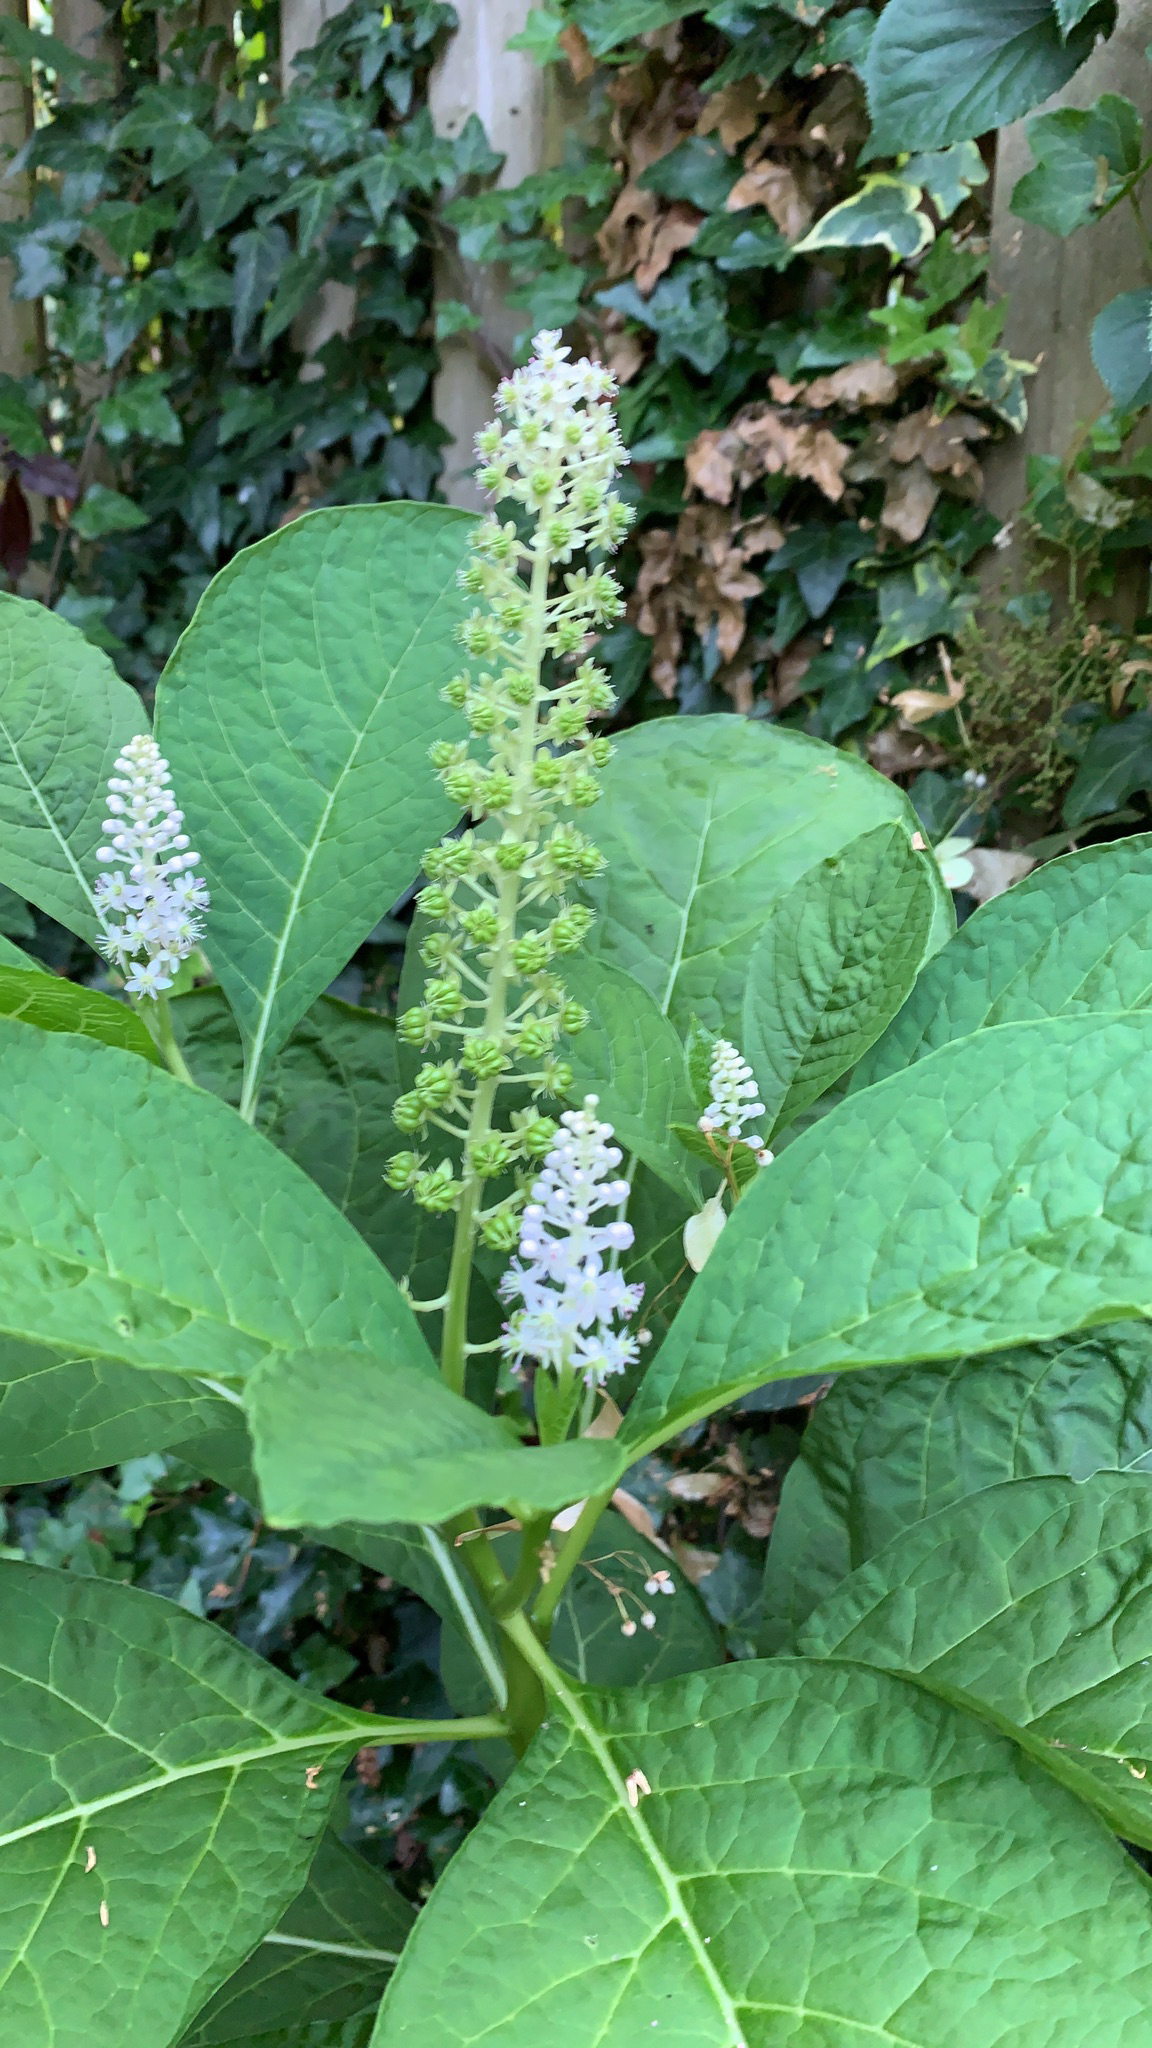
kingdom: Plantae
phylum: Tracheophyta
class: Magnoliopsida
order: Caryophyllales
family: Phytolaccaceae
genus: Phytolacca
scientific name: Phytolacca acinosa
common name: Indian pokeweed
